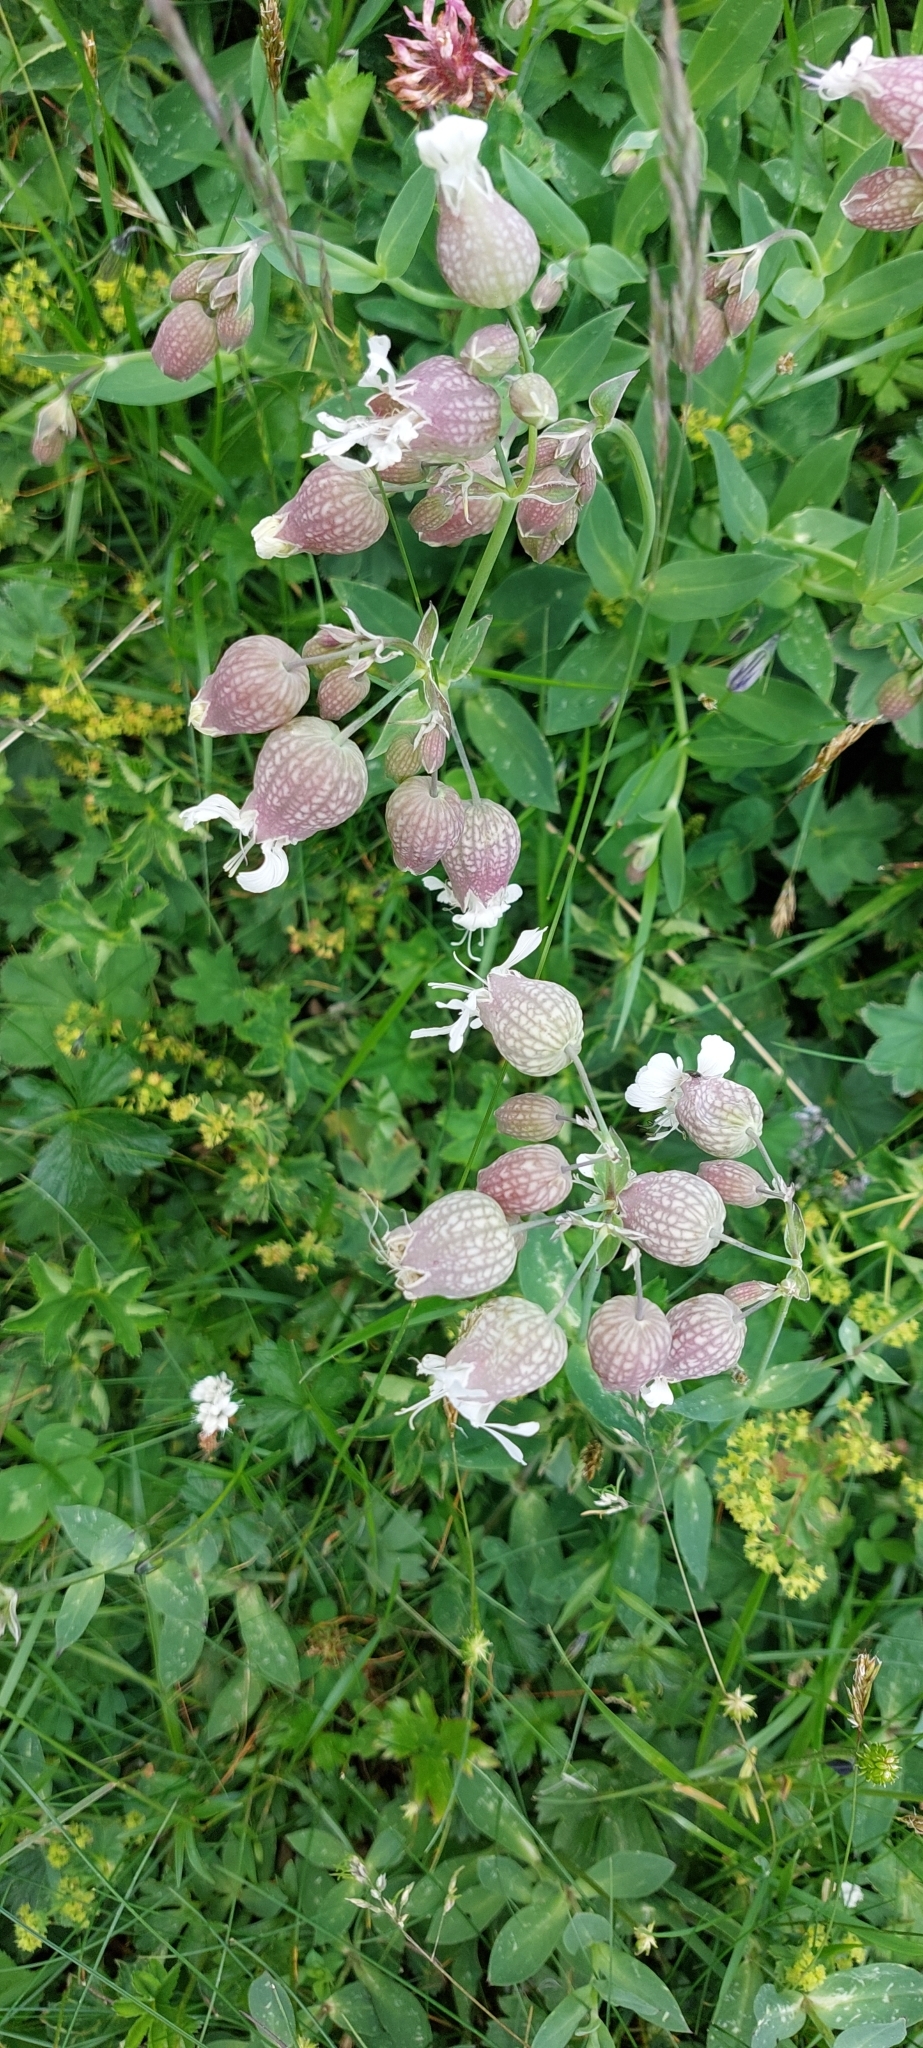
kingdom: Plantae
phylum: Tracheophyta
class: Magnoliopsida
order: Caryophyllales
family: Caryophyllaceae
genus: Silene
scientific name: Silene vulgaris
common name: Bladder campion
